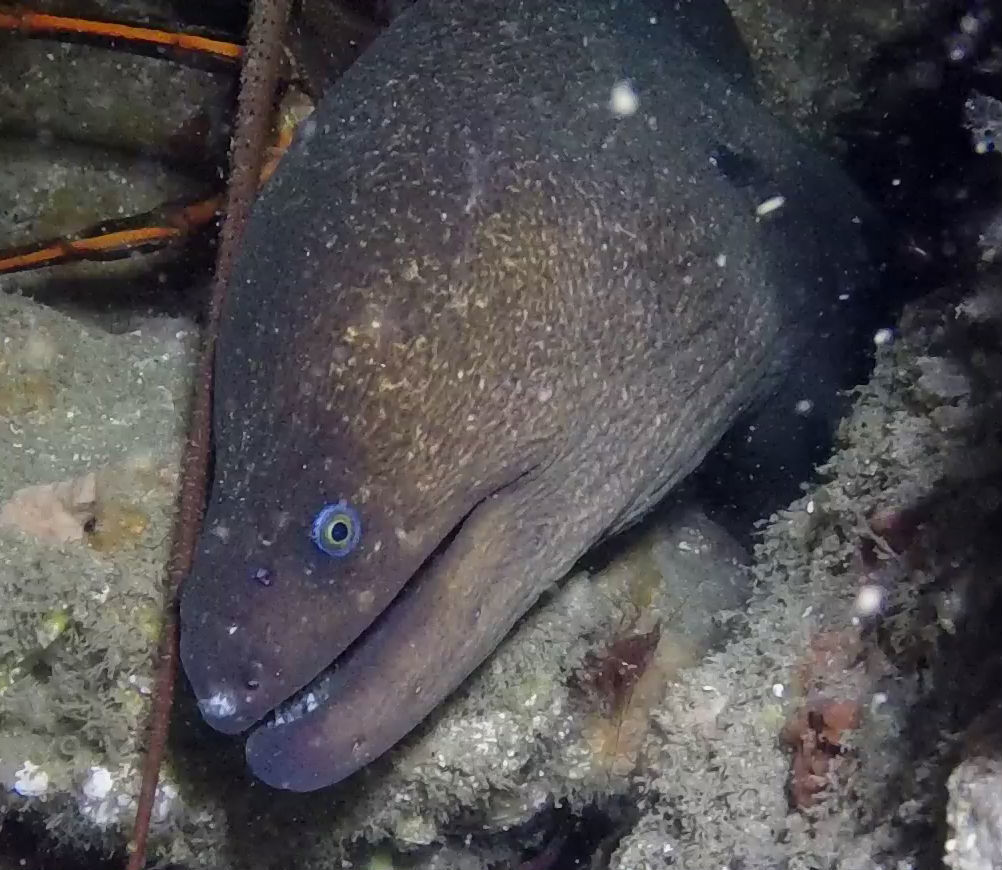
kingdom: Animalia
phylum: Chordata
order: Anguilliformes
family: Muraenidae
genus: Gymnothorax
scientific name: Gymnothorax mordax
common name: California moray
